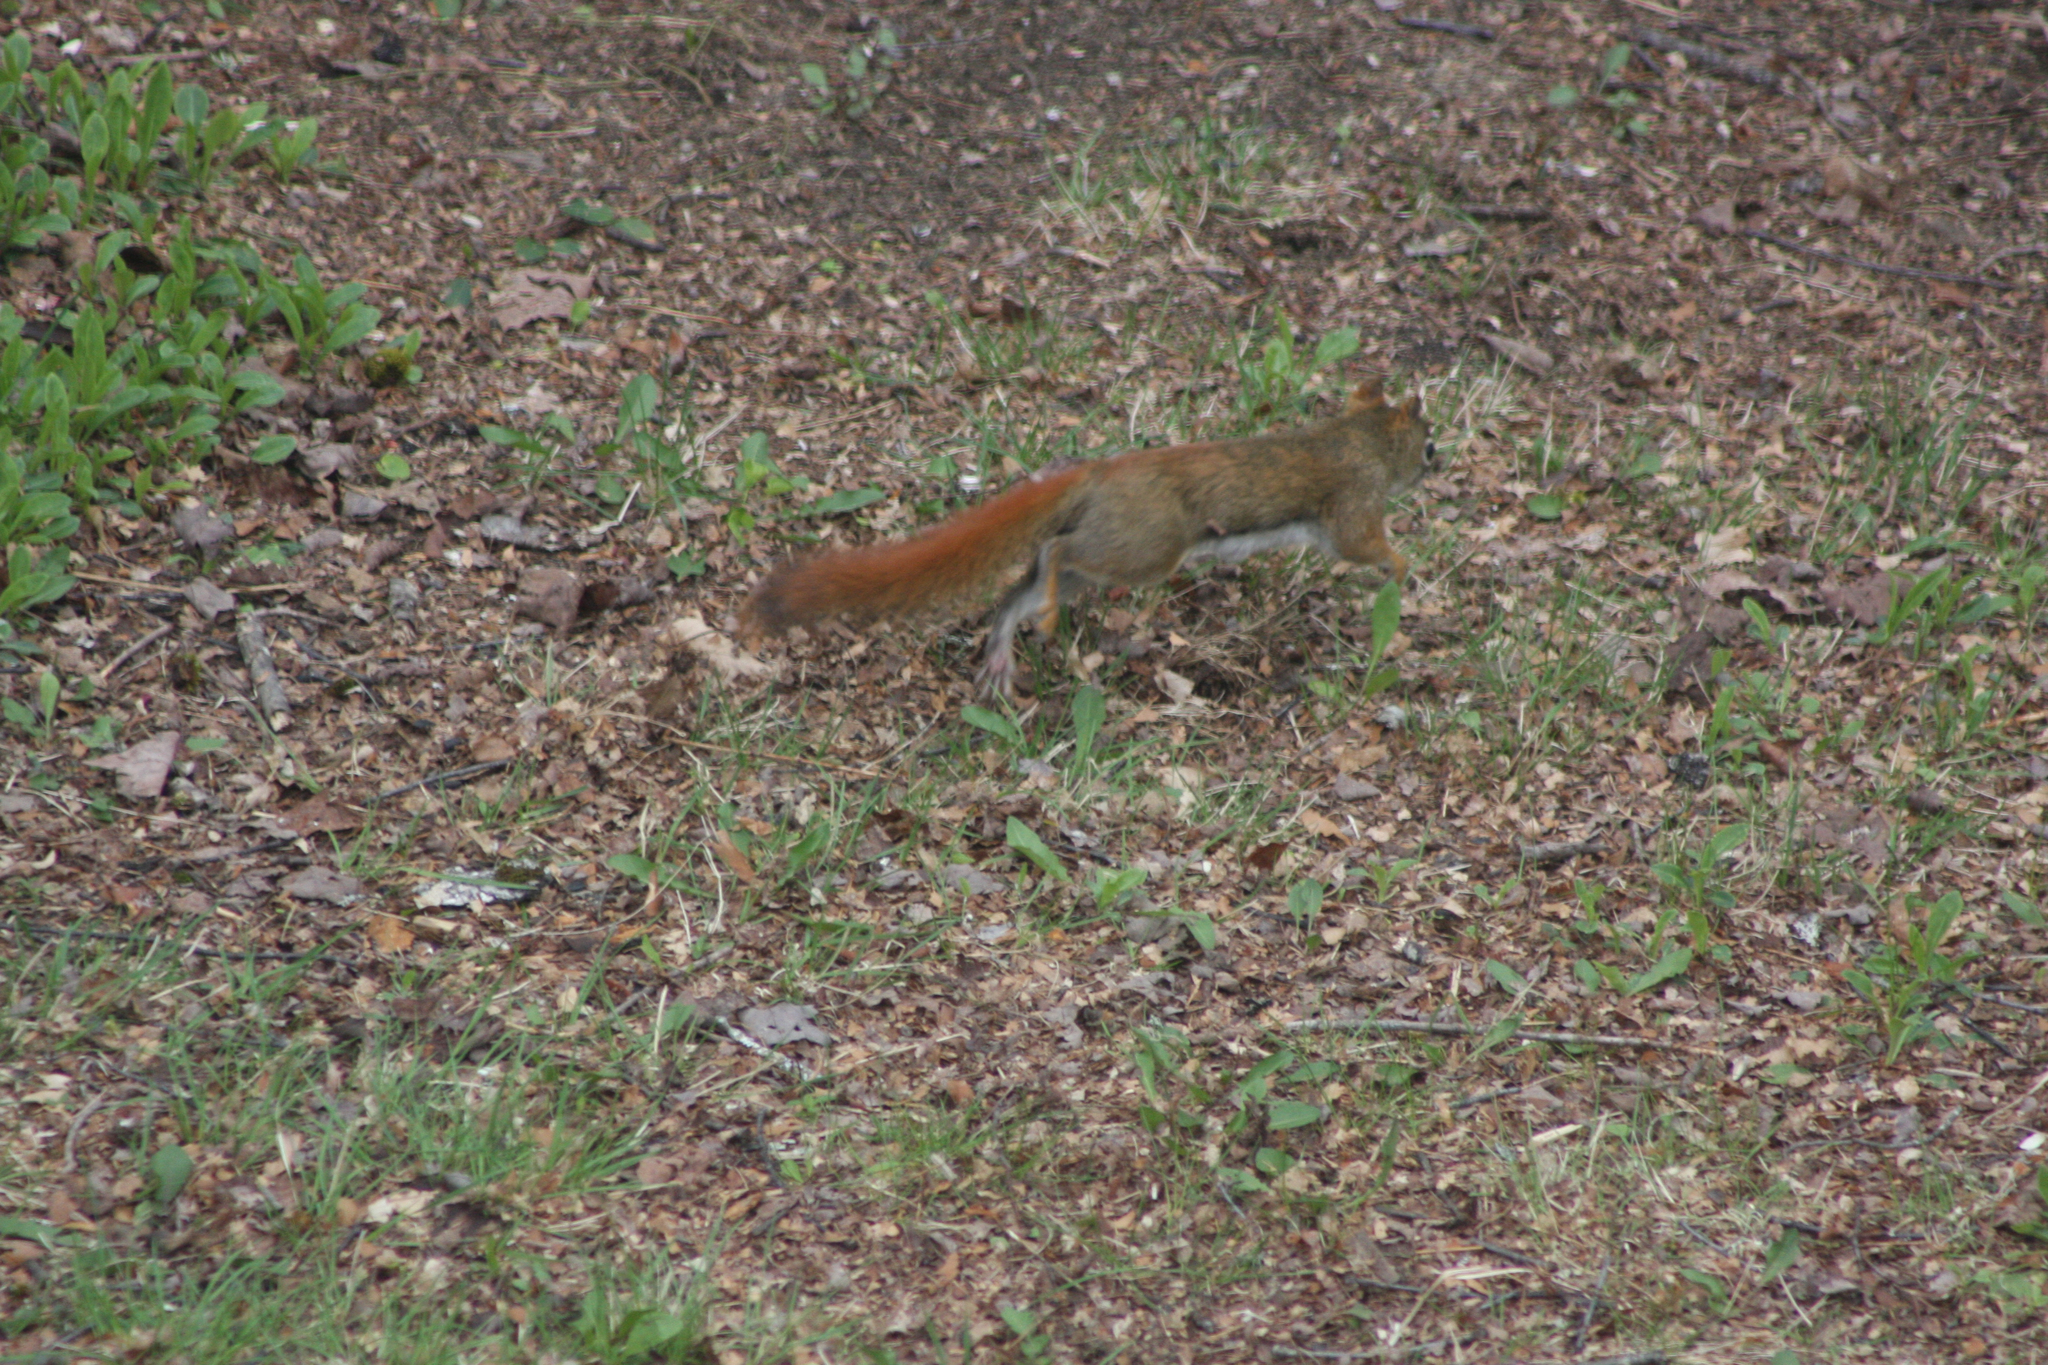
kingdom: Animalia
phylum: Chordata
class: Mammalia
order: Rodentia
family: Sciuridae
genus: Tamiasciurus
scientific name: Tamiasciurus hudsonicus
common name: Red squirrel
